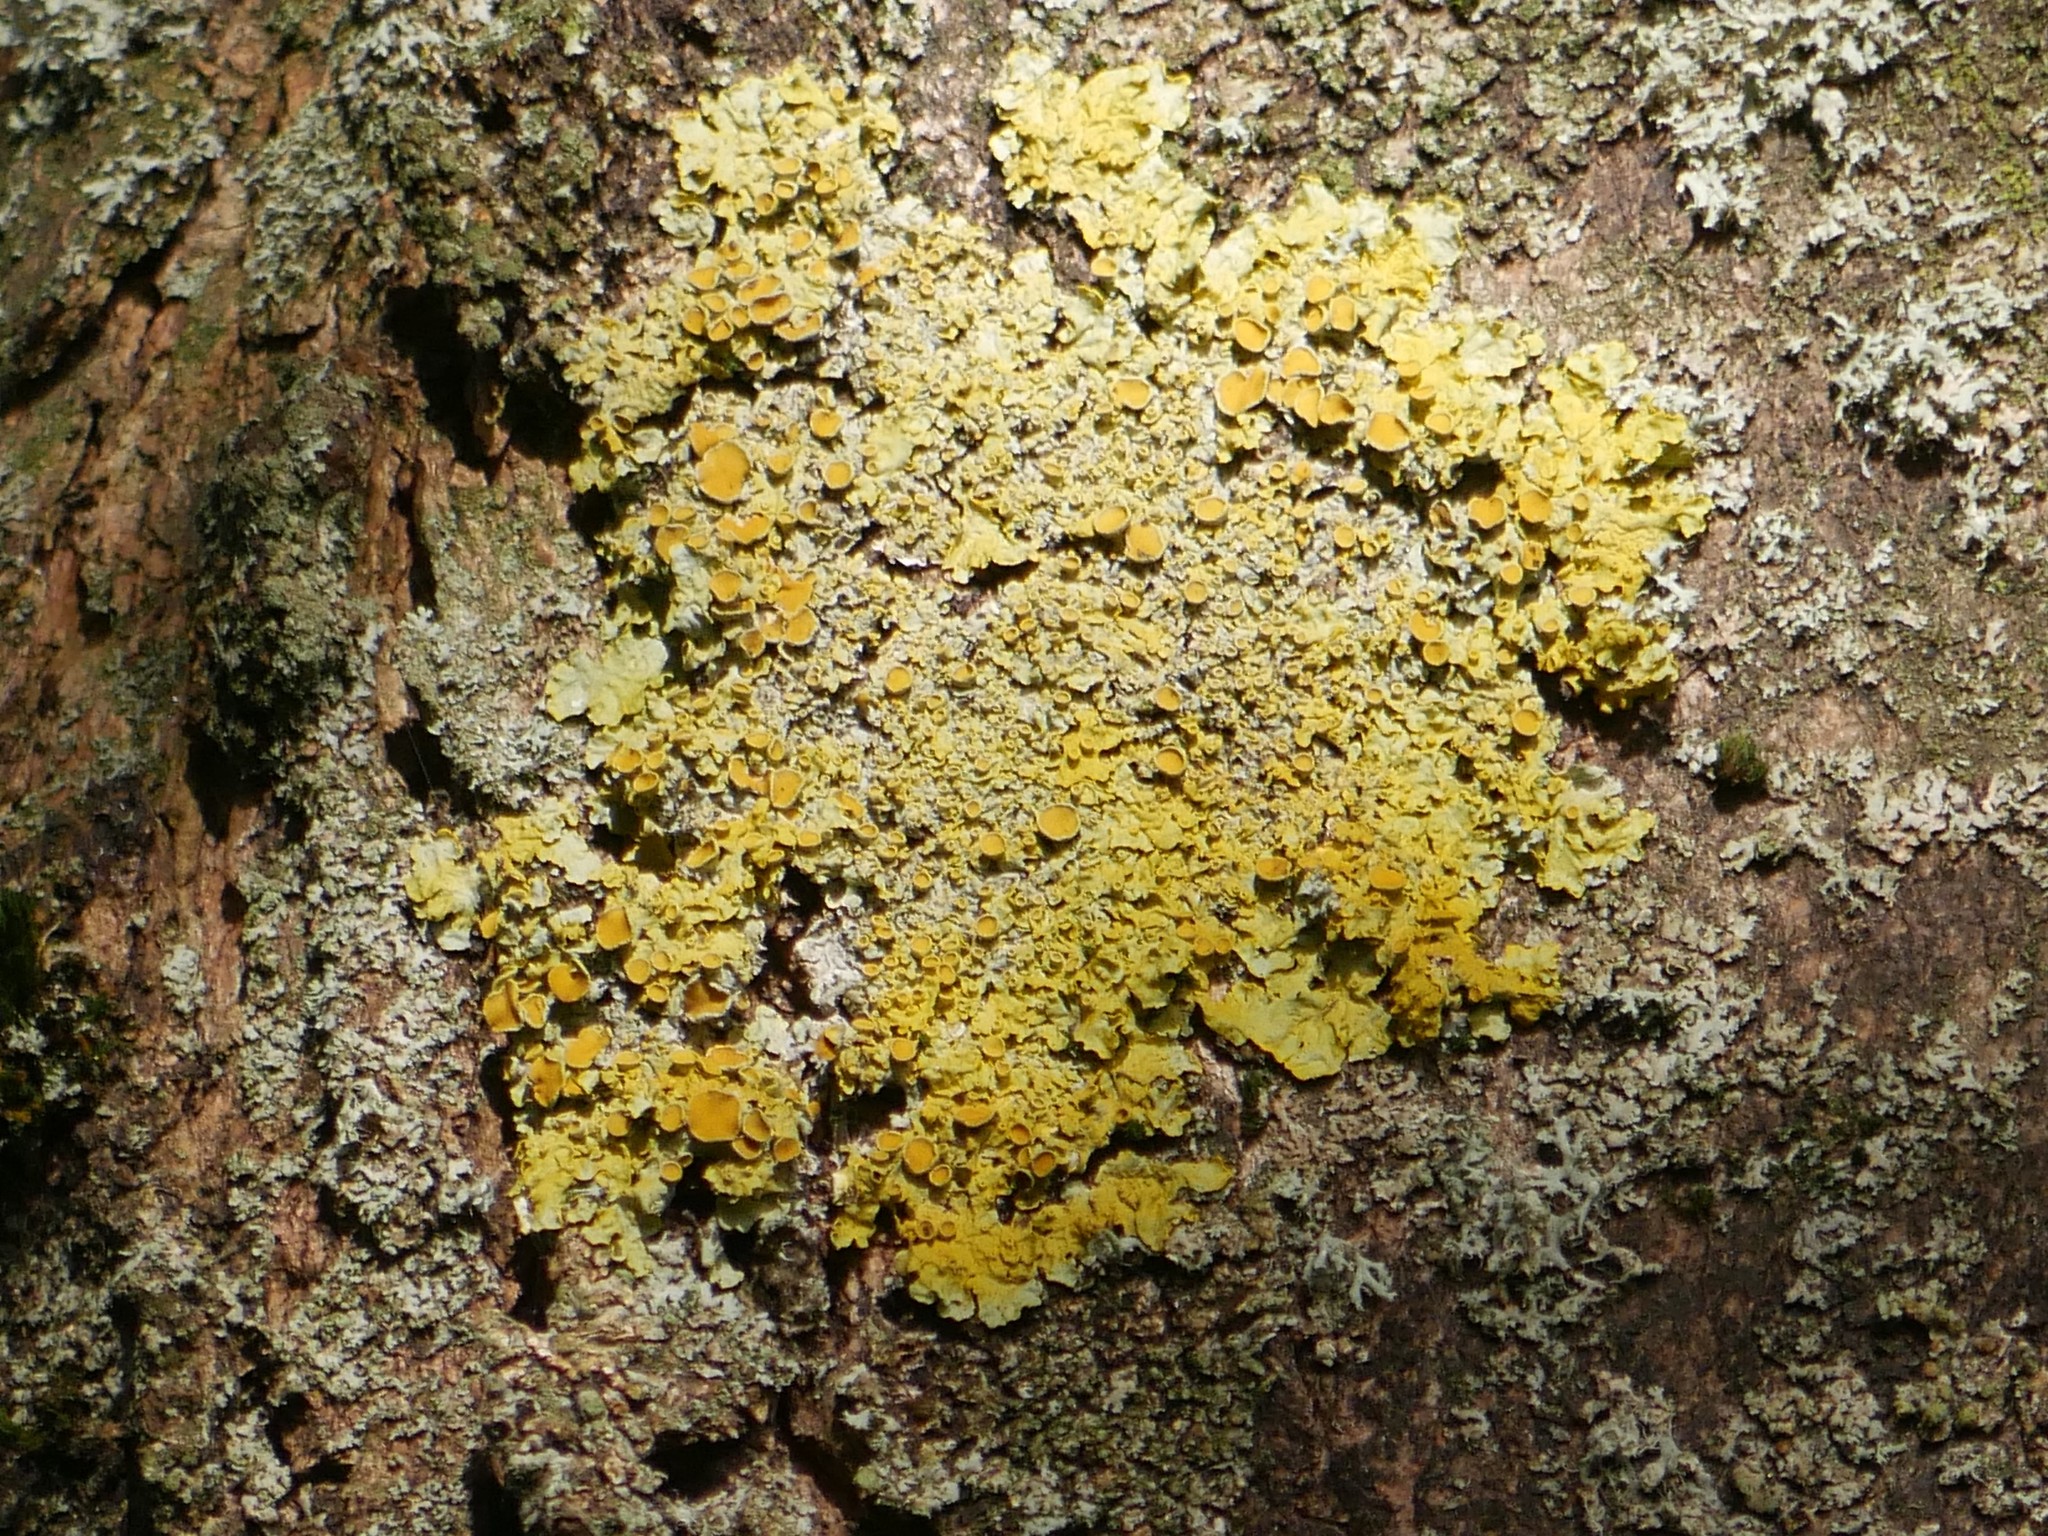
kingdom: Fungi
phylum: Ascomycota
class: Lecanoromycetes
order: Teloschistales
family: Teloschistaceae
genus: Xanthoria
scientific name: Xanthoria parietina
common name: Common orange lichen
